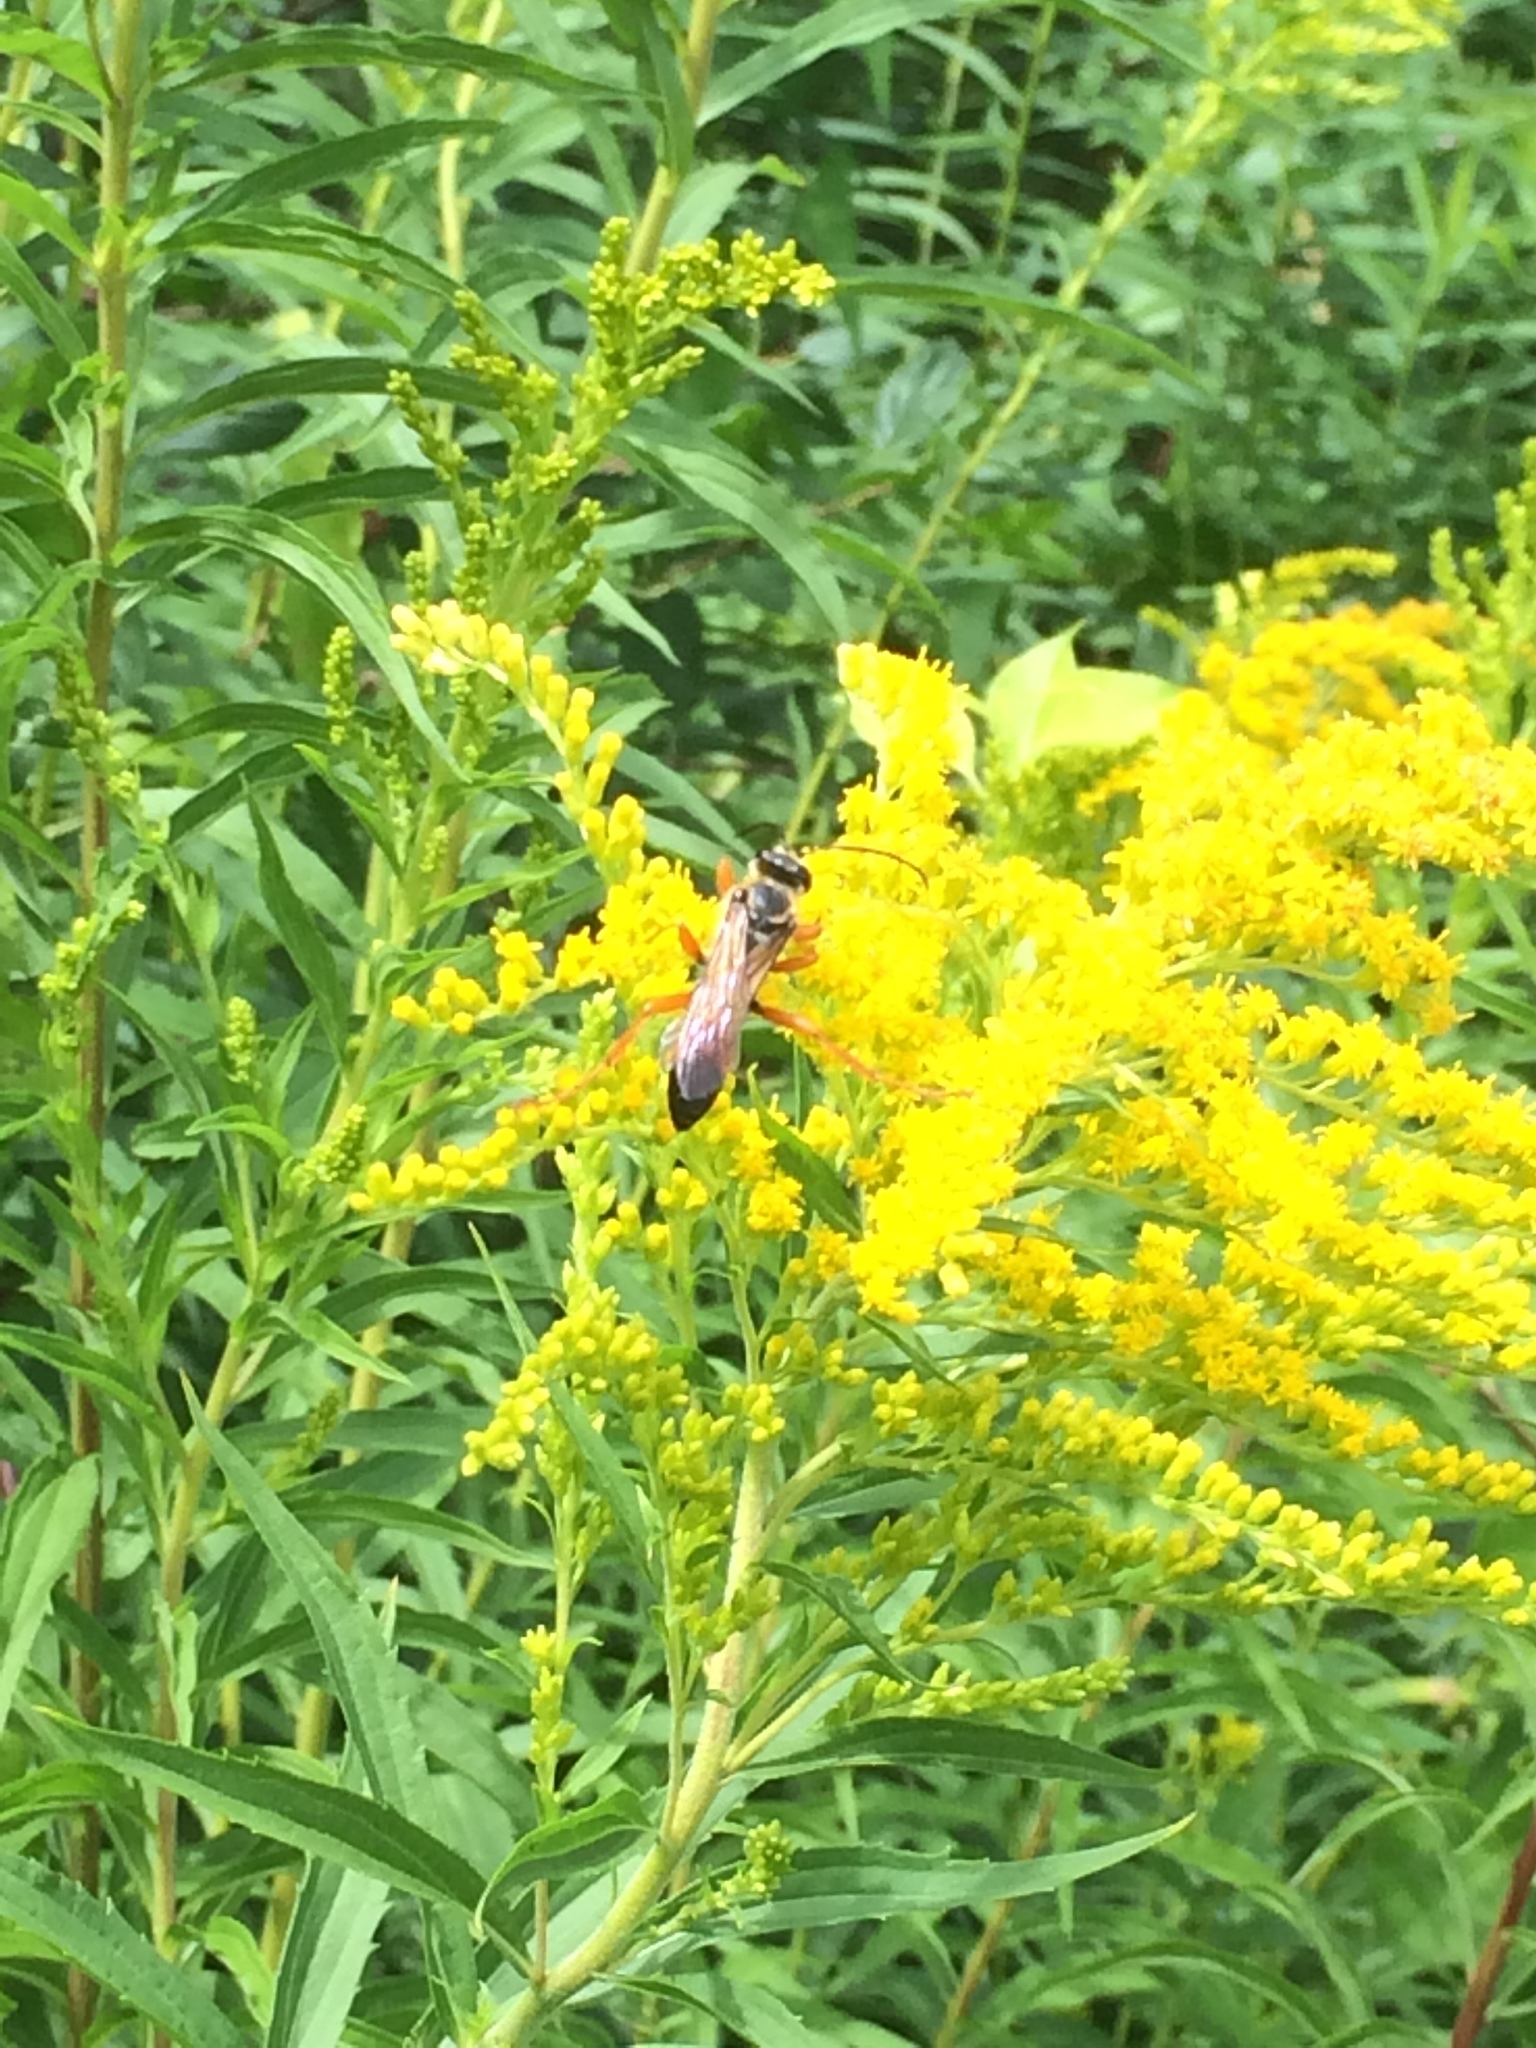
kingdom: Animalia
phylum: Arthropoda
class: Insecta
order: Hymenoptera
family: Sphecidae
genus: Sphex
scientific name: Sphex ichneumoneus
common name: Great golden digger wasp
